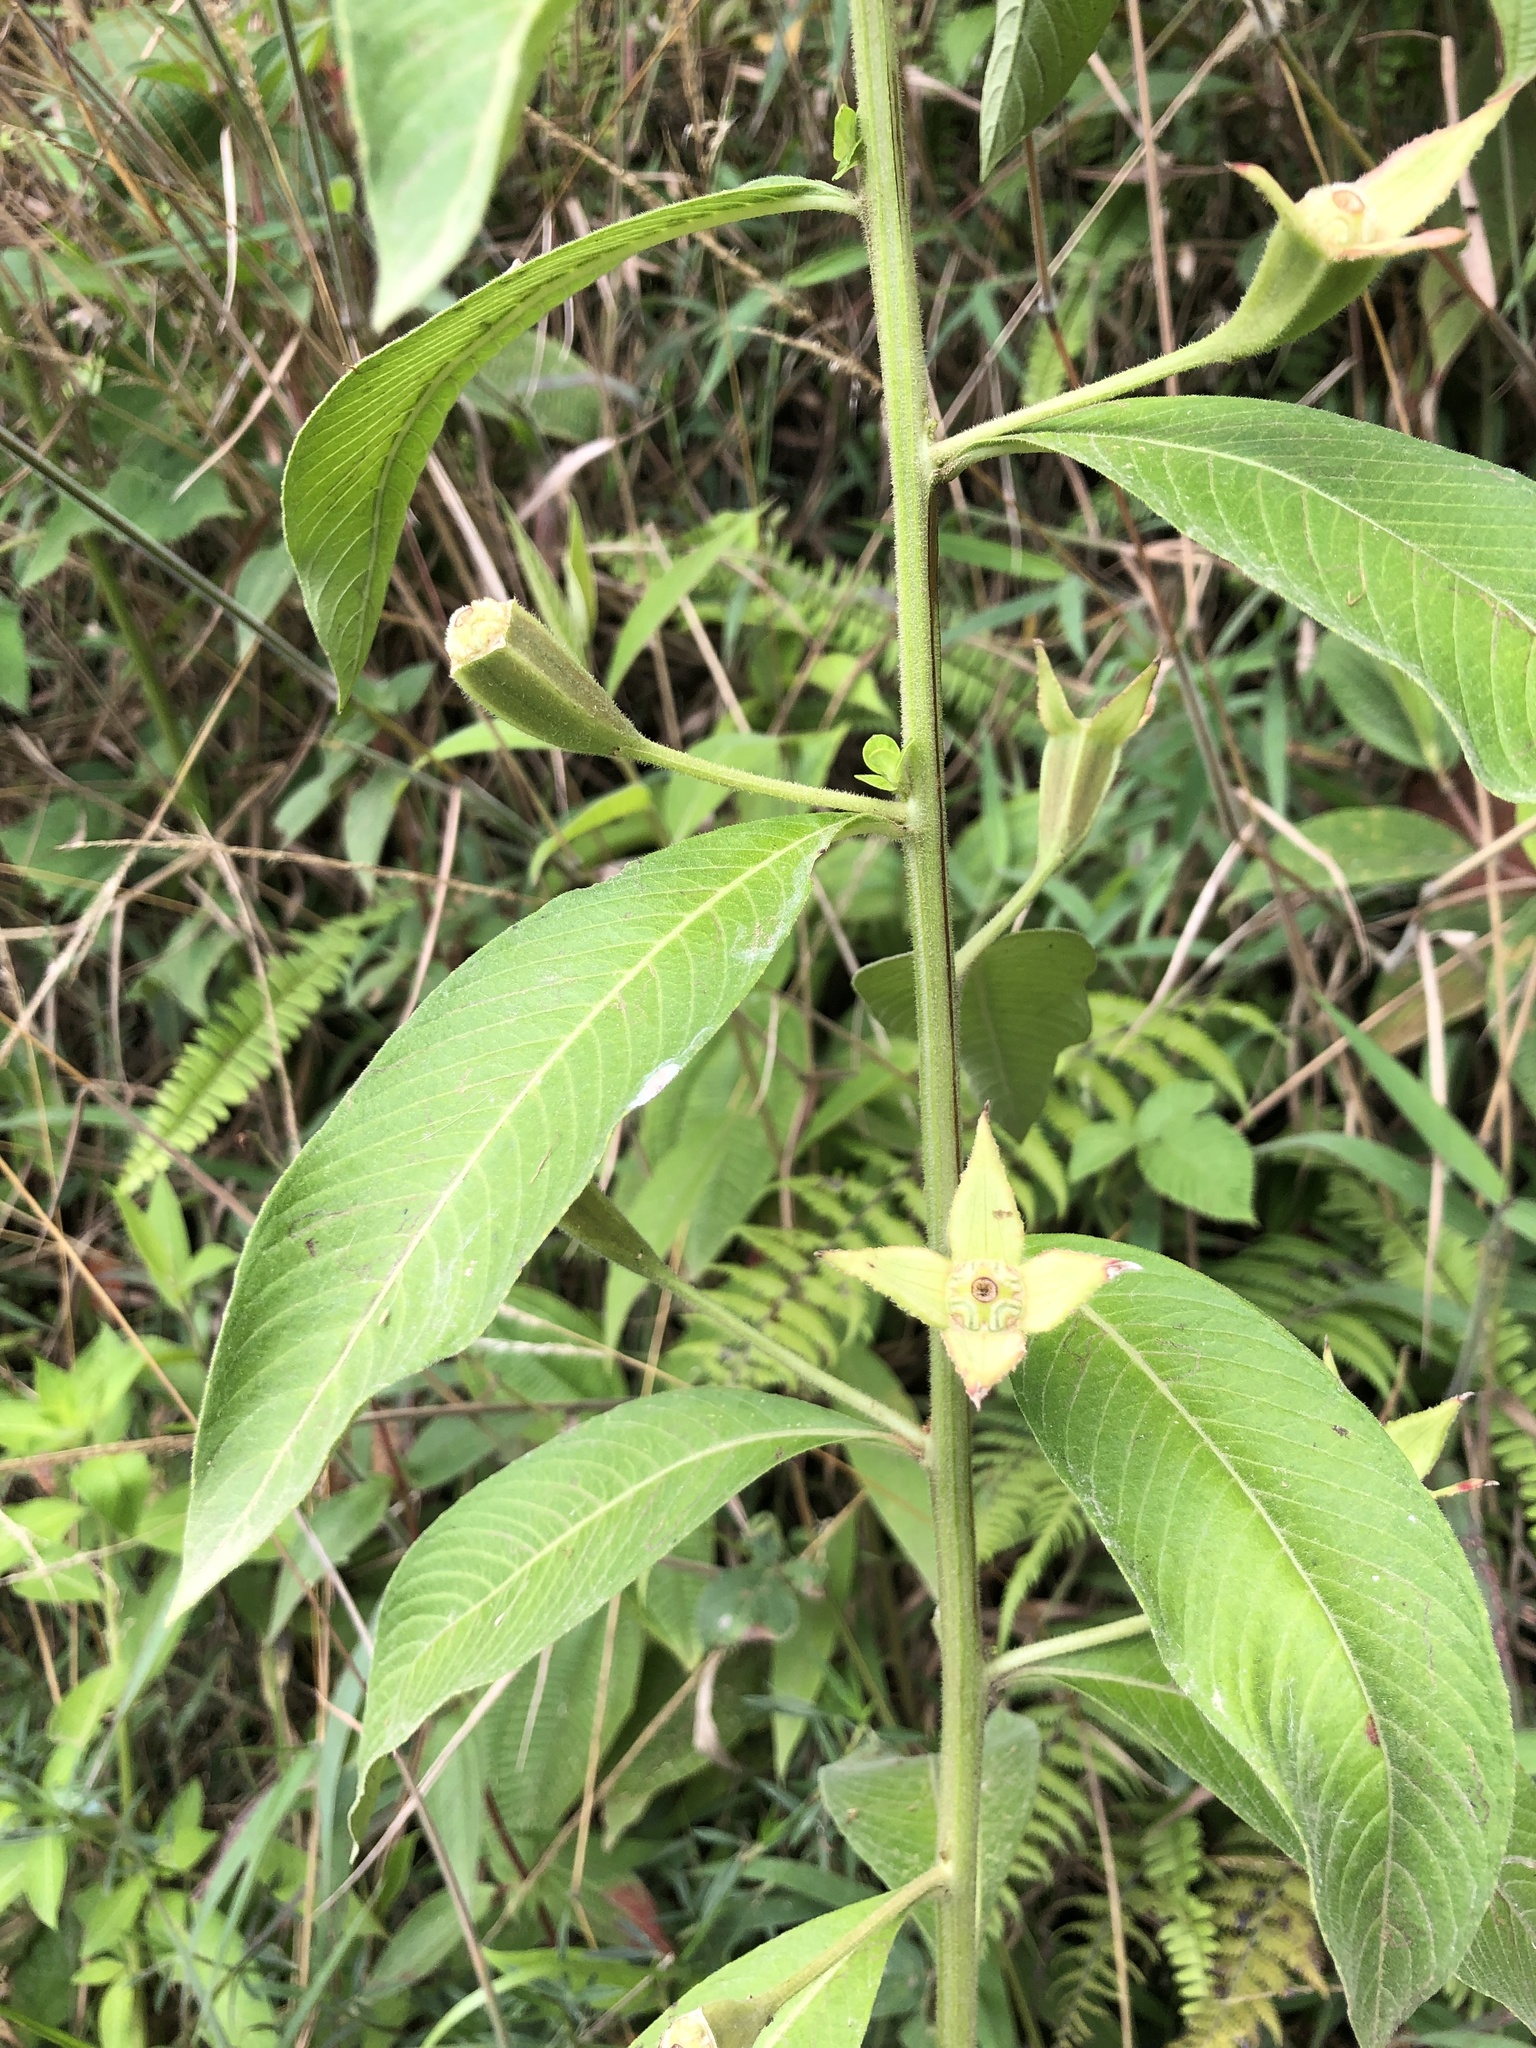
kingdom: Plantae
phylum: Tracheophyta
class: Magnoliopsida
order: Myrtales
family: Onagraceae
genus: Ludwigia
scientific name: Ludwigia peruviana
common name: Peruvian primrose-willow
